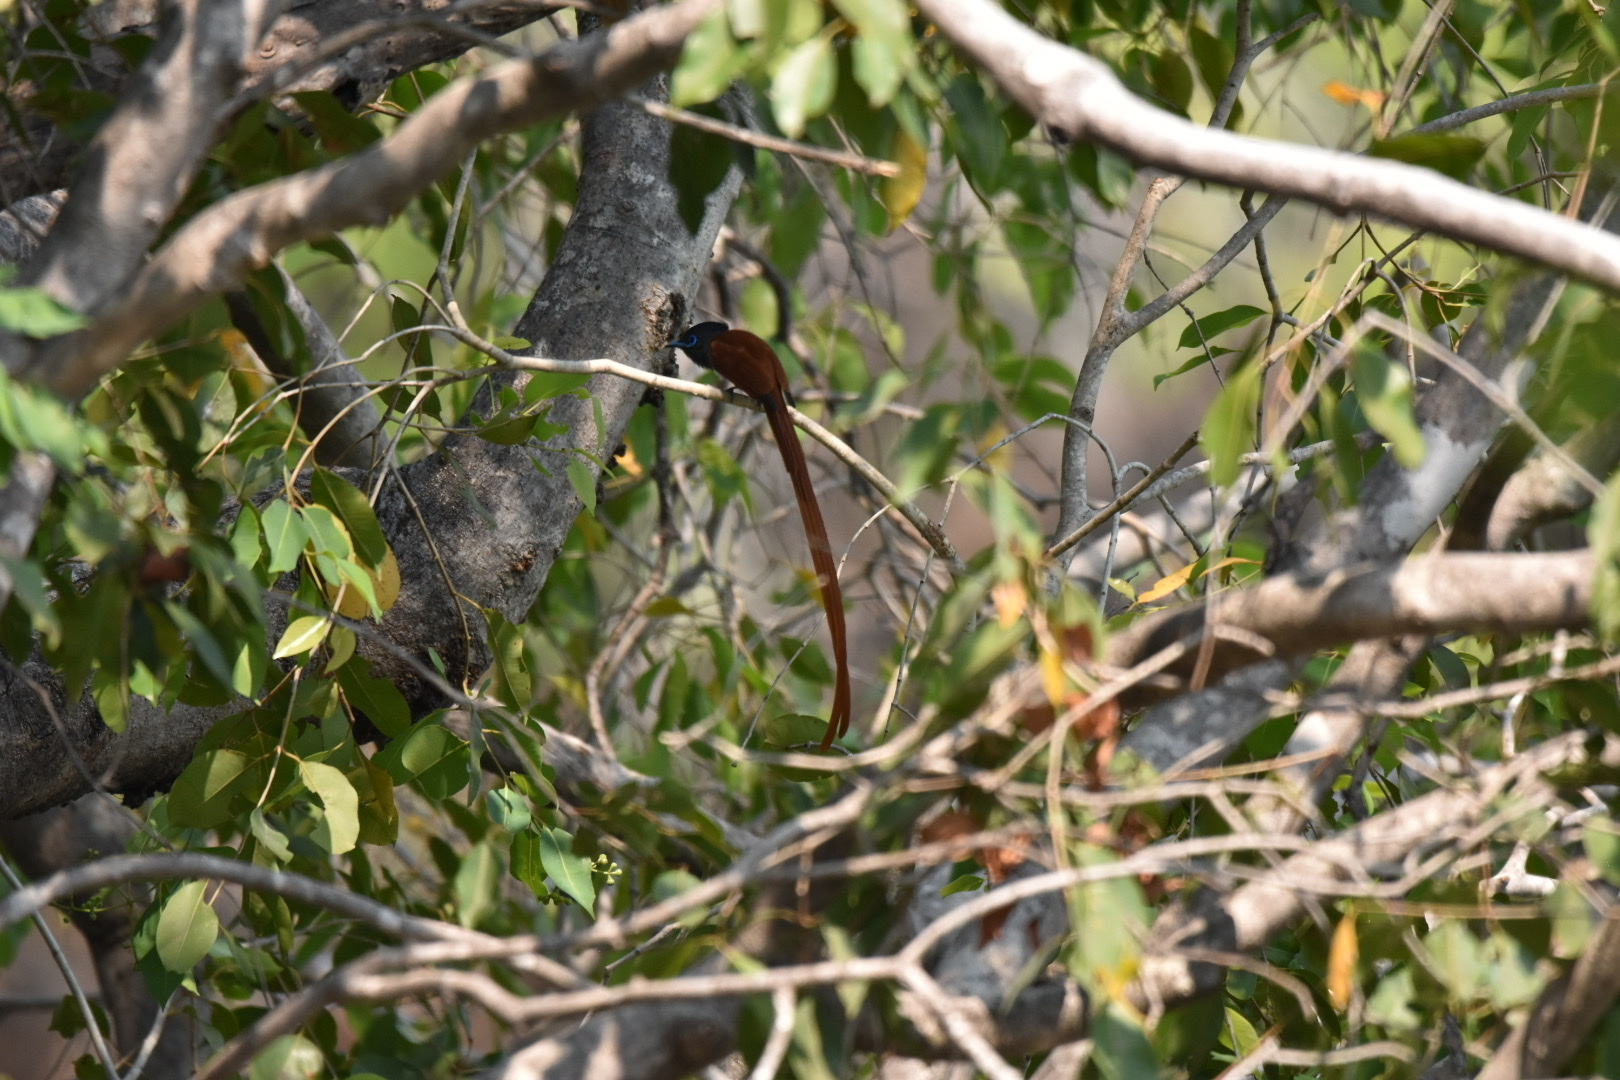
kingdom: Animalia
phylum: Chordata
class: Aves
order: Passeriformes
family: Monarchidae
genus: Terpsiphone
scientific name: Terpsiphone viridis
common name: African paradise flycatcher
